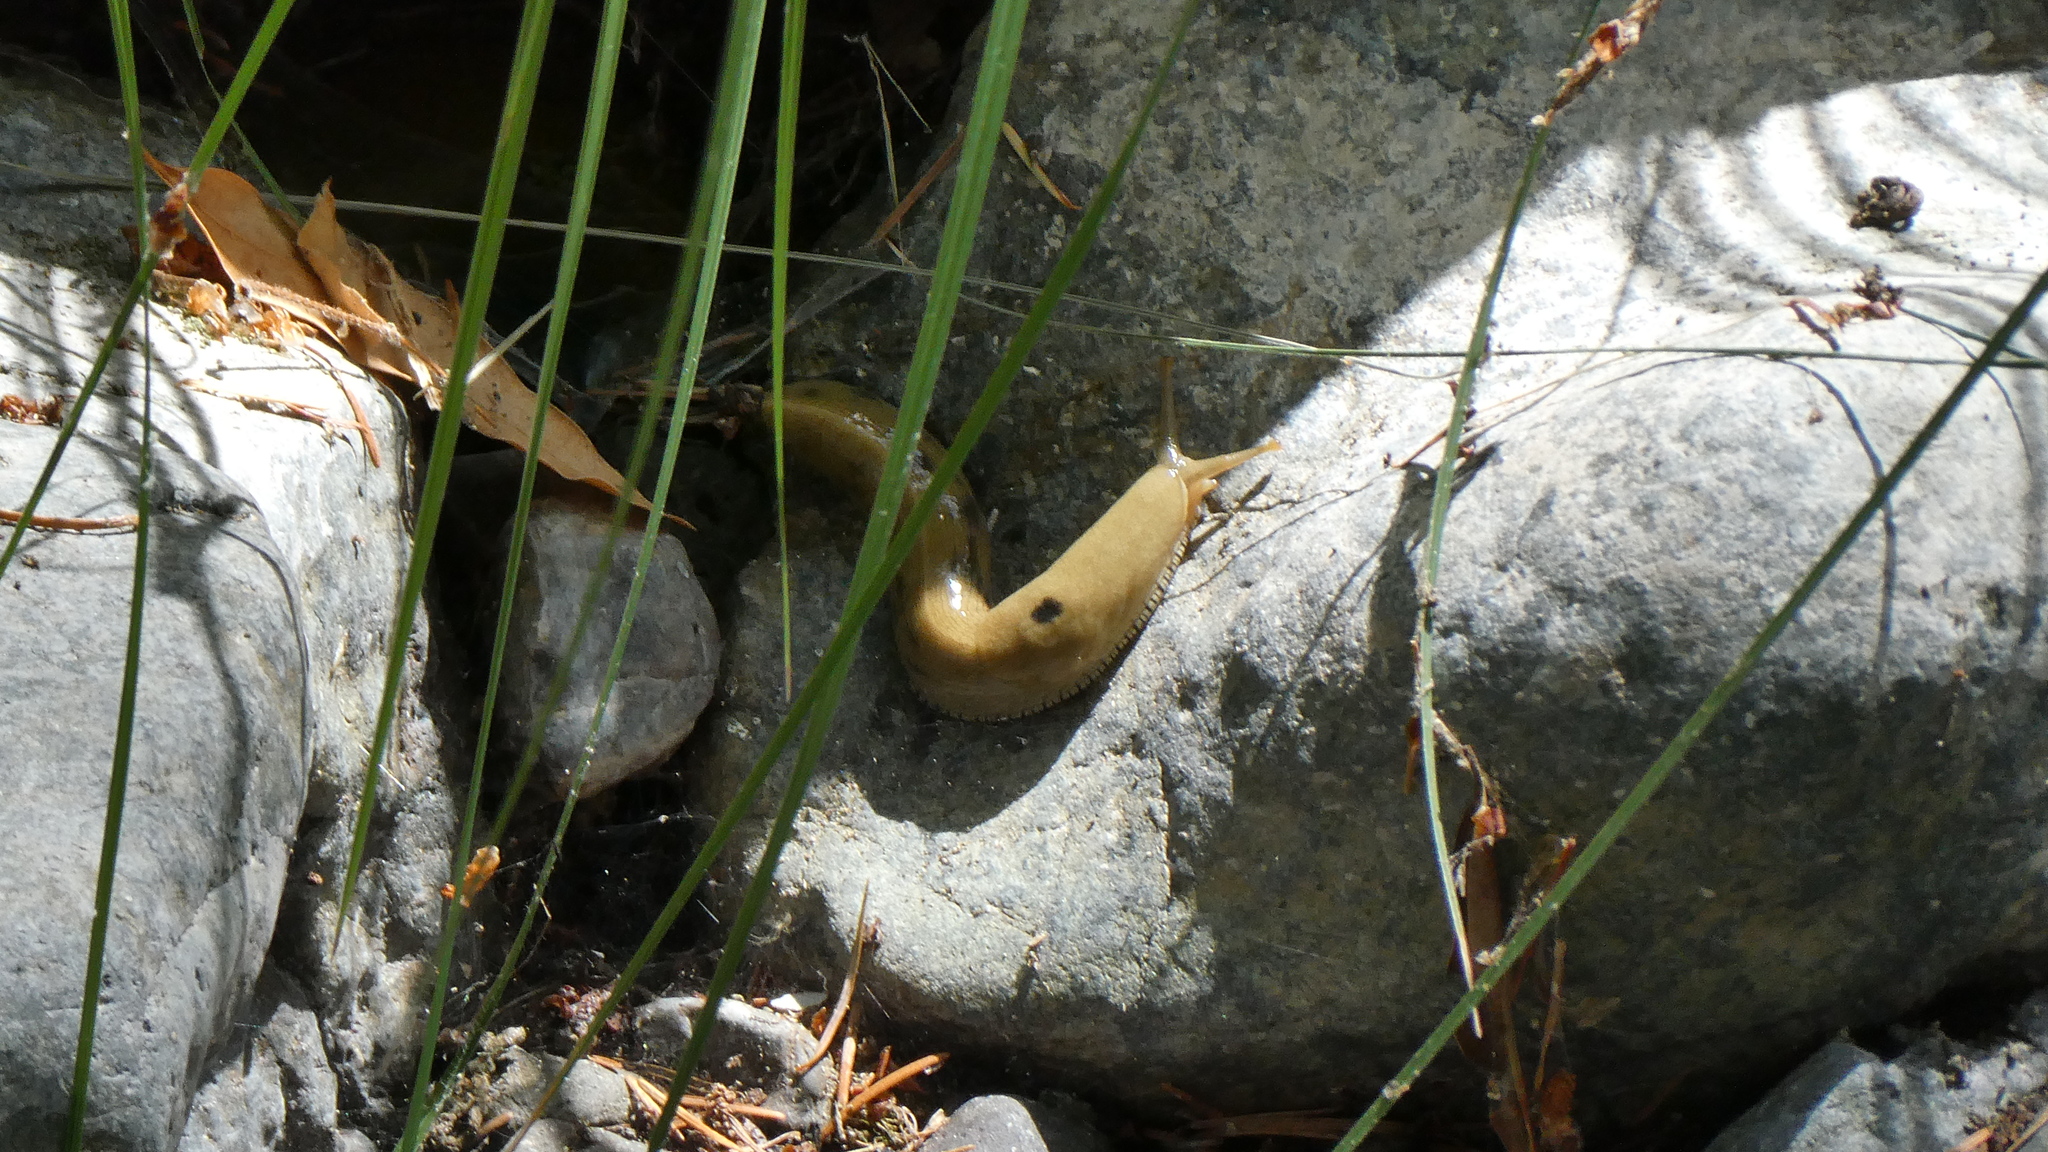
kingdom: Animalia
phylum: Mollusca
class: Gastropoda
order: Stylommatophora
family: Ariolimacidae
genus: Ariolimax
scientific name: Ariolimax buttoni
